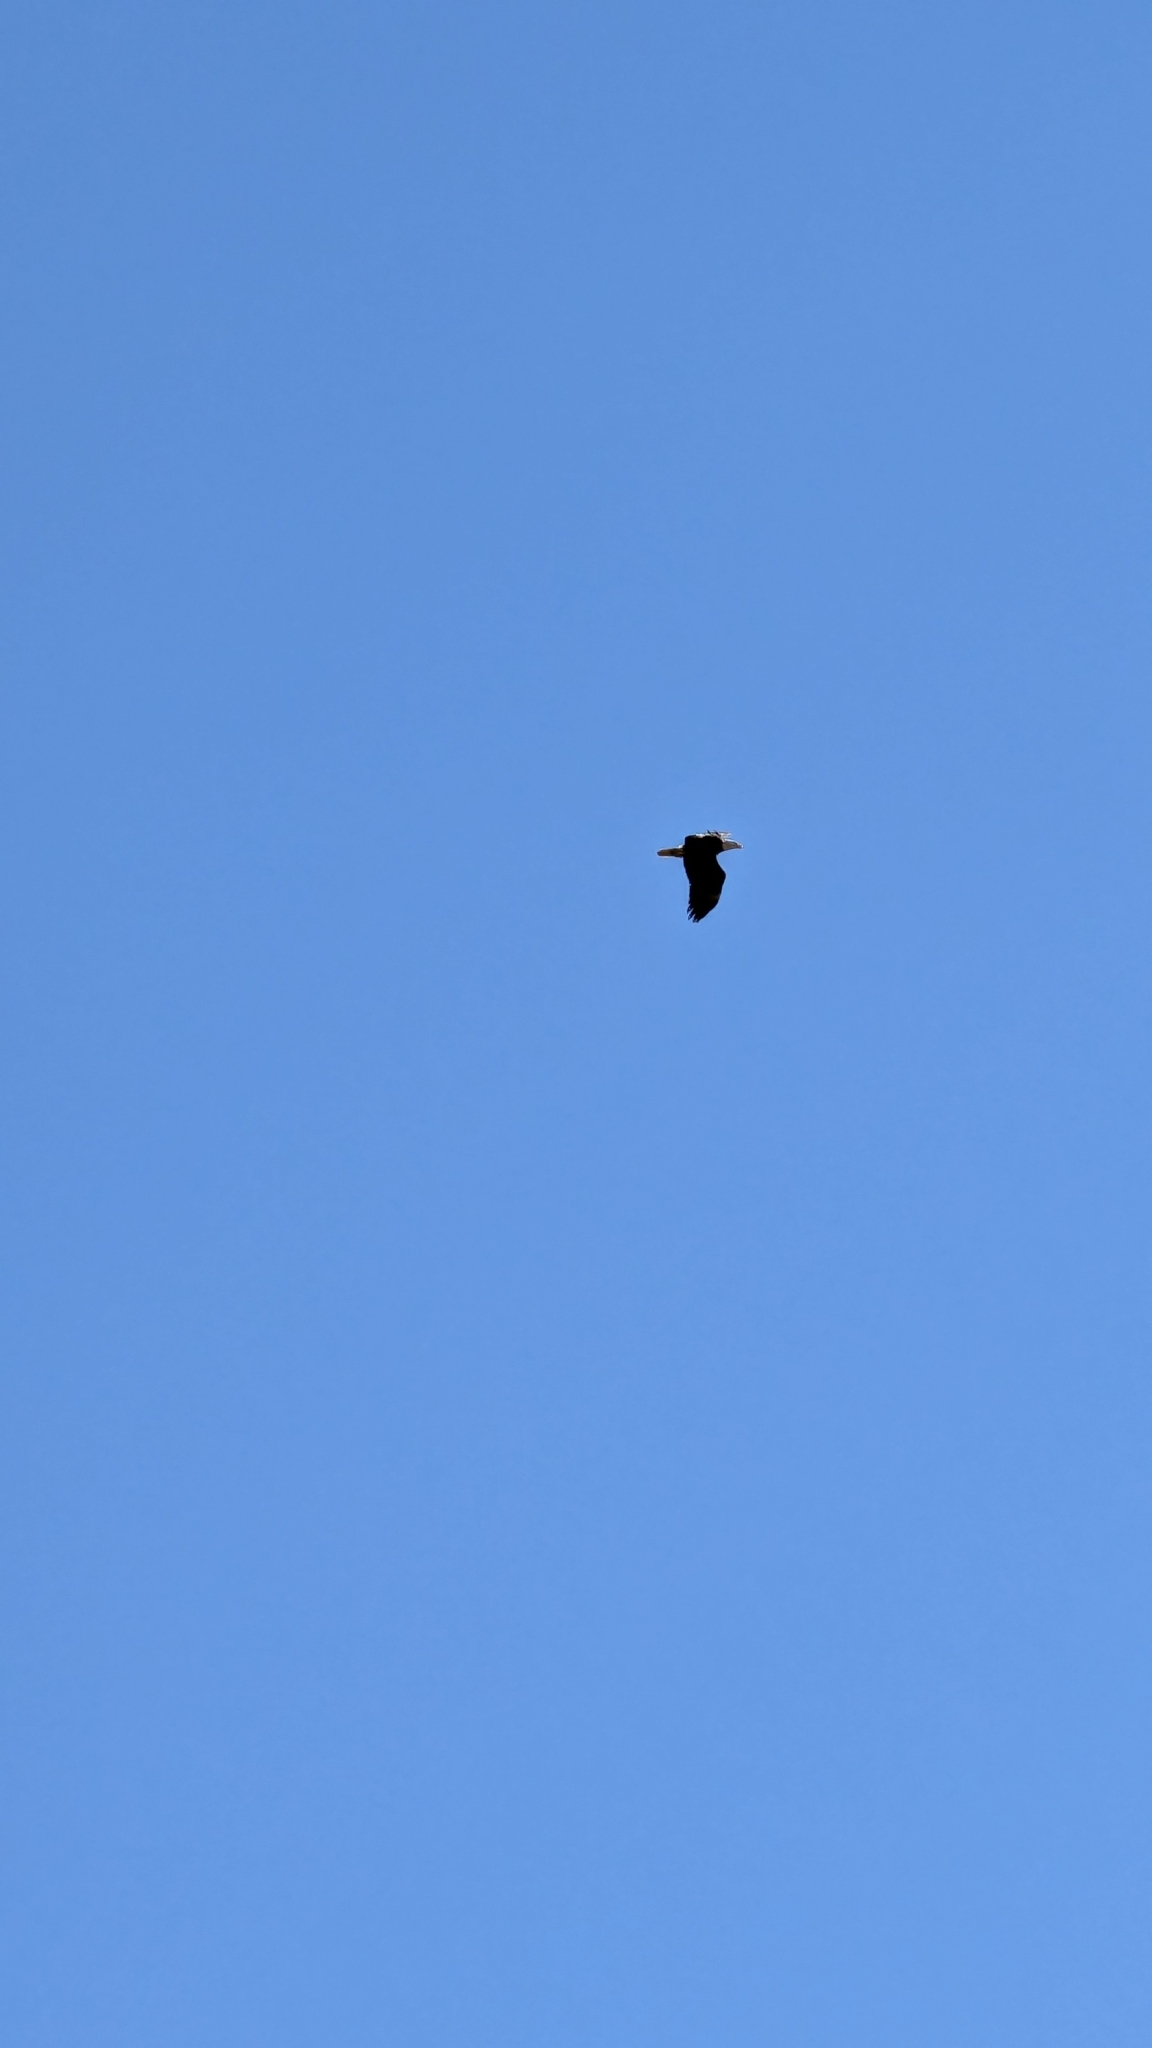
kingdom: Animalia
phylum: Chordata
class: Aves
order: Accipitriformes
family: Accipitridae
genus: Haliaeetus
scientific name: Haliaeetus leucocephalus
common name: Bald eagle
